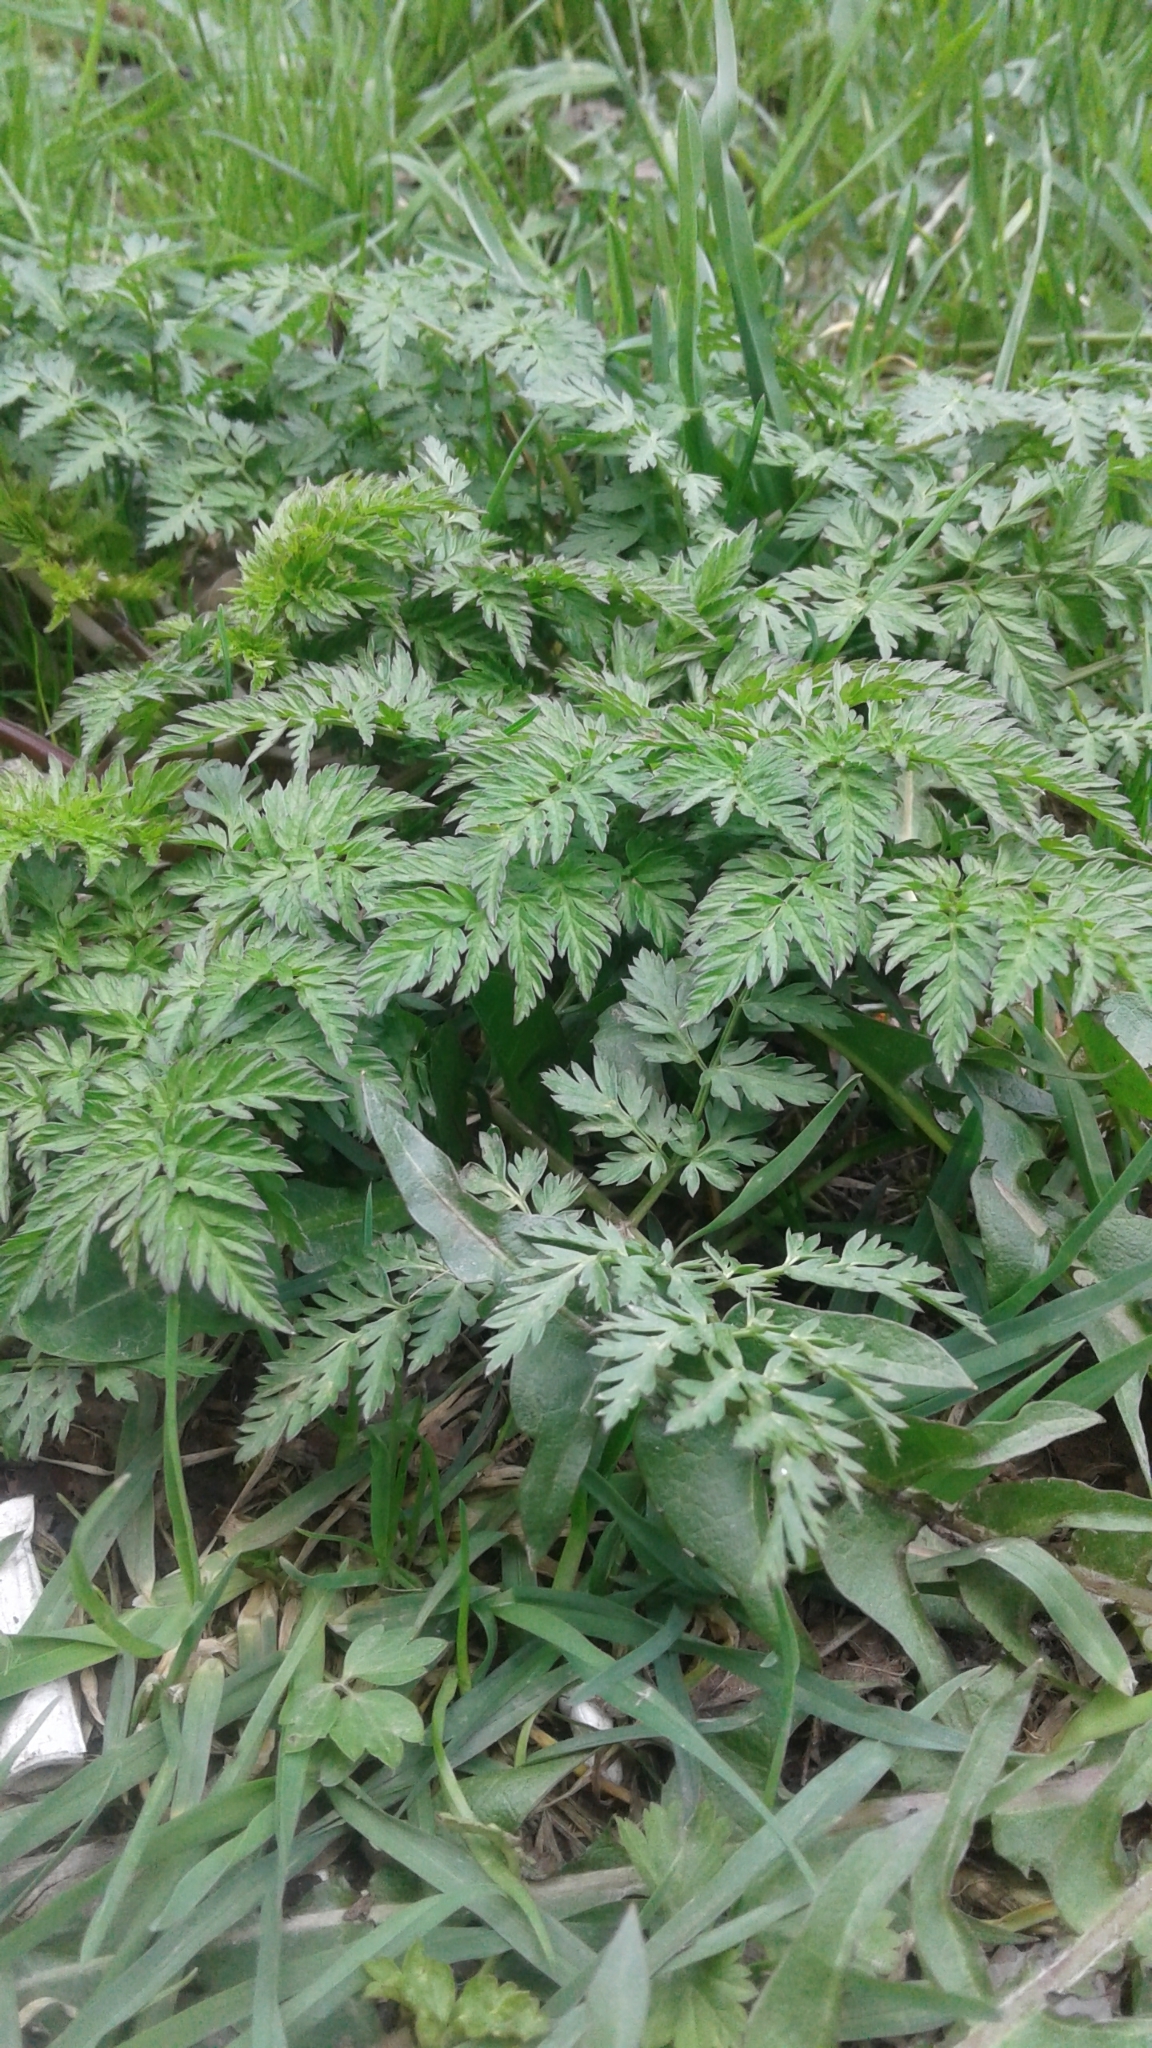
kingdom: Plantae
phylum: Tracheophyta
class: Magnoliopsida
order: Apiales
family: Apiaceae
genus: Anthriscus
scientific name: Anthriscus sylvestris
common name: Cow parsley
